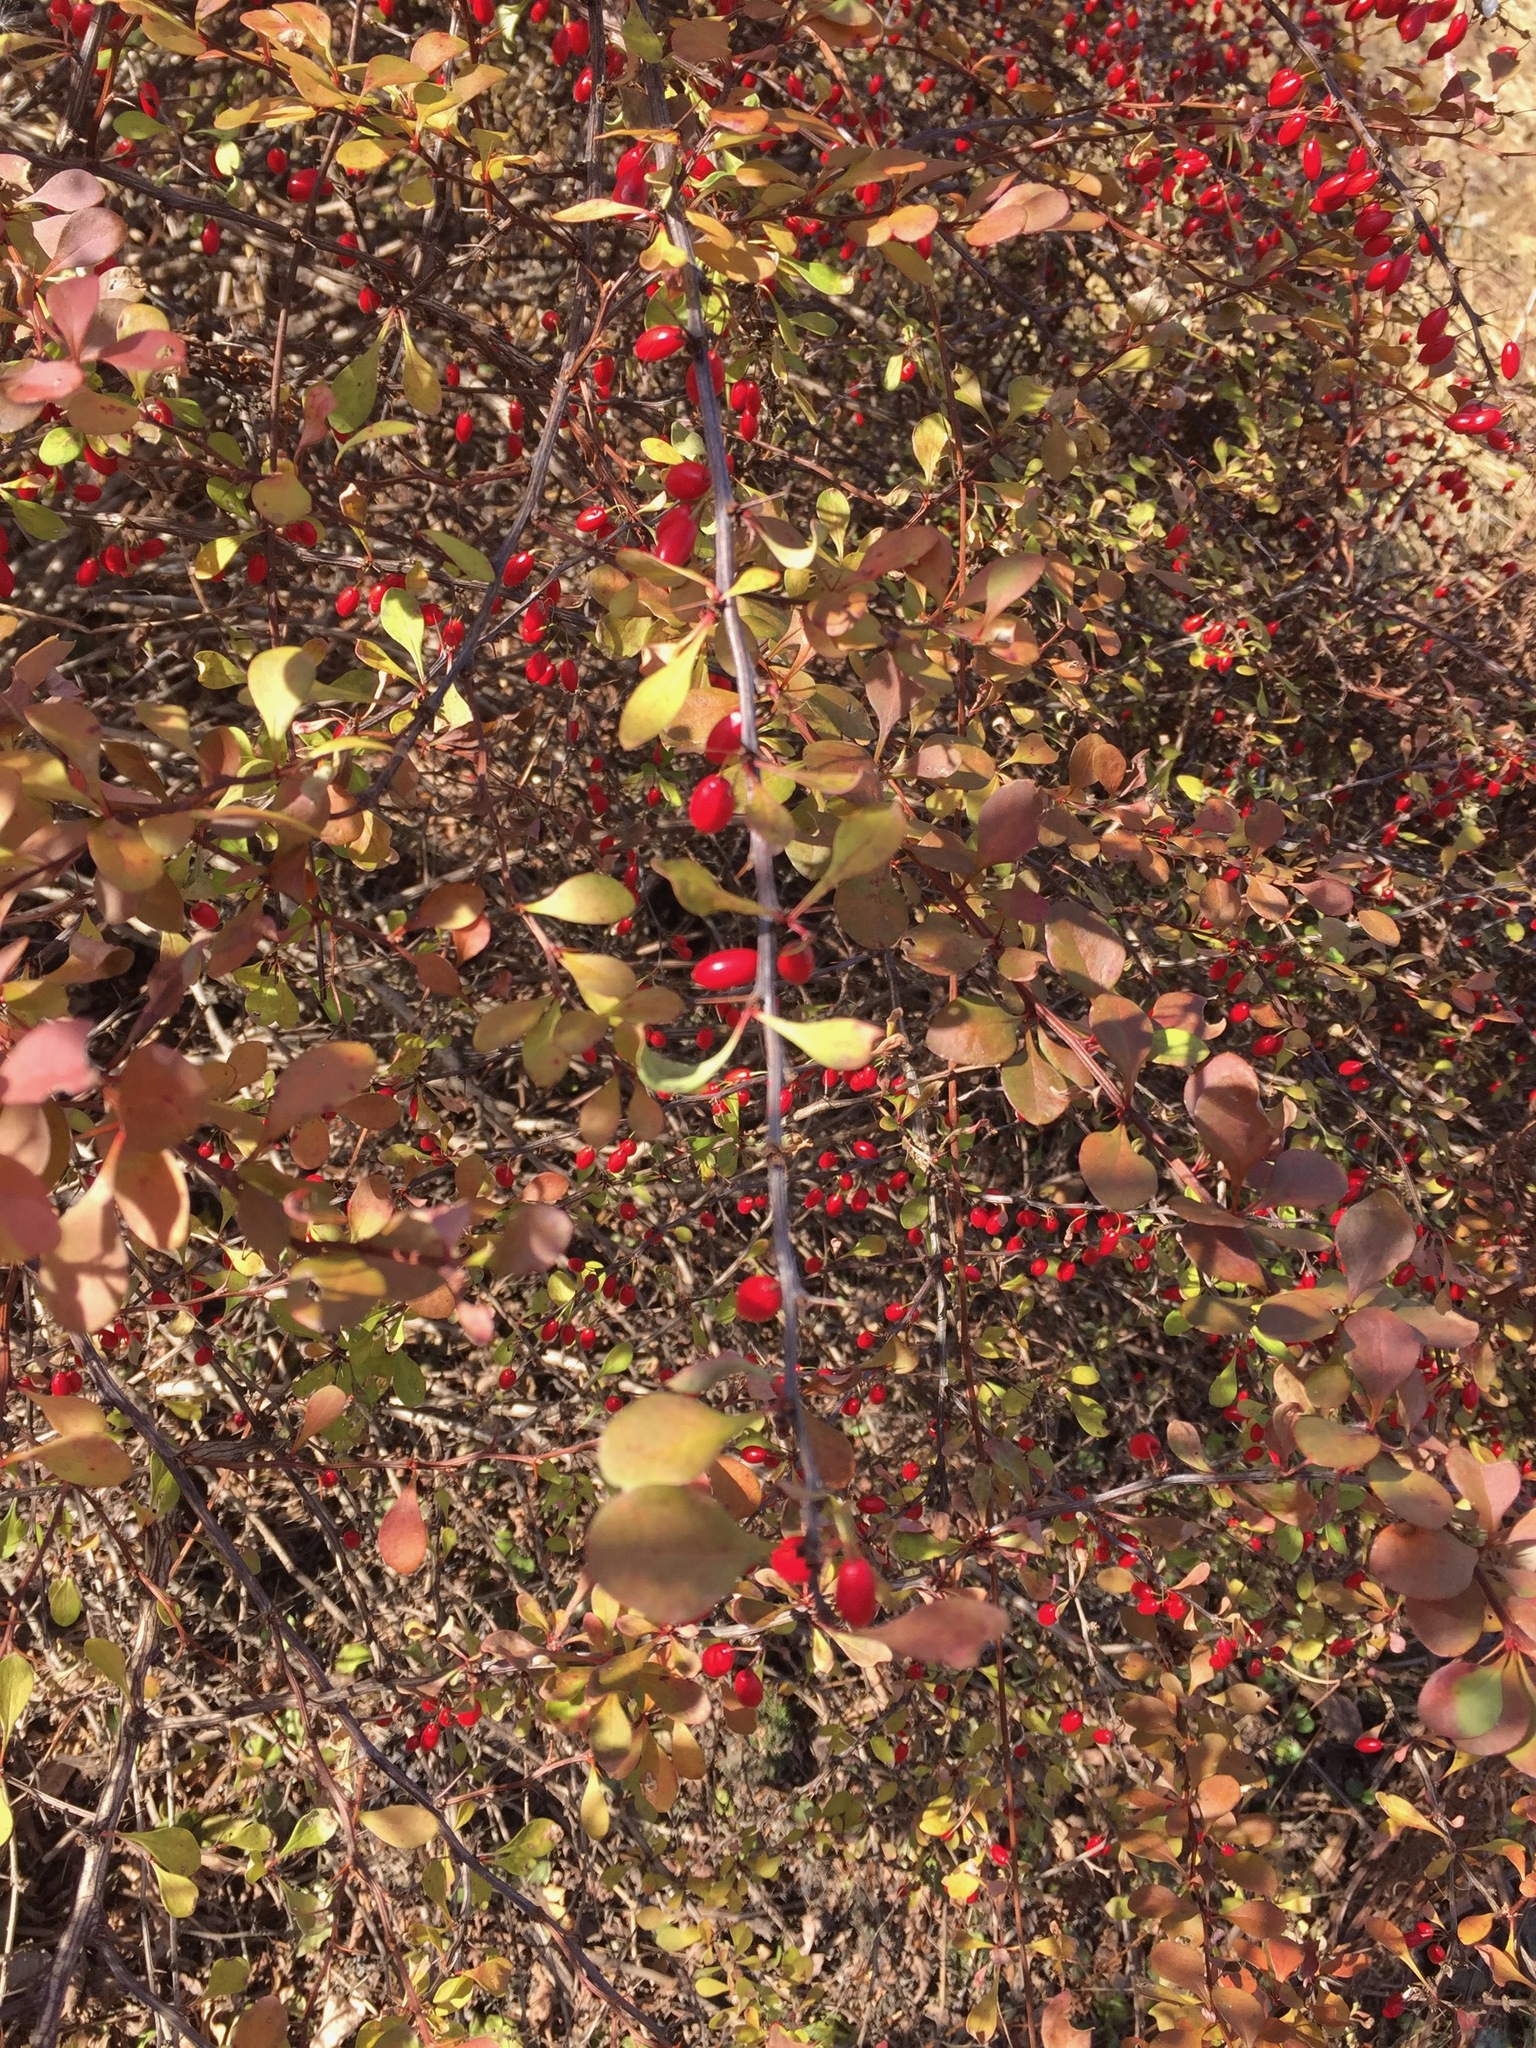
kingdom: Plantae
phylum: Tracheophyta
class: Magnoliopsida
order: Ranunculales
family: Berberidaceae
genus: Berberis
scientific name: Berberis thunbergii
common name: Japanese barberry
